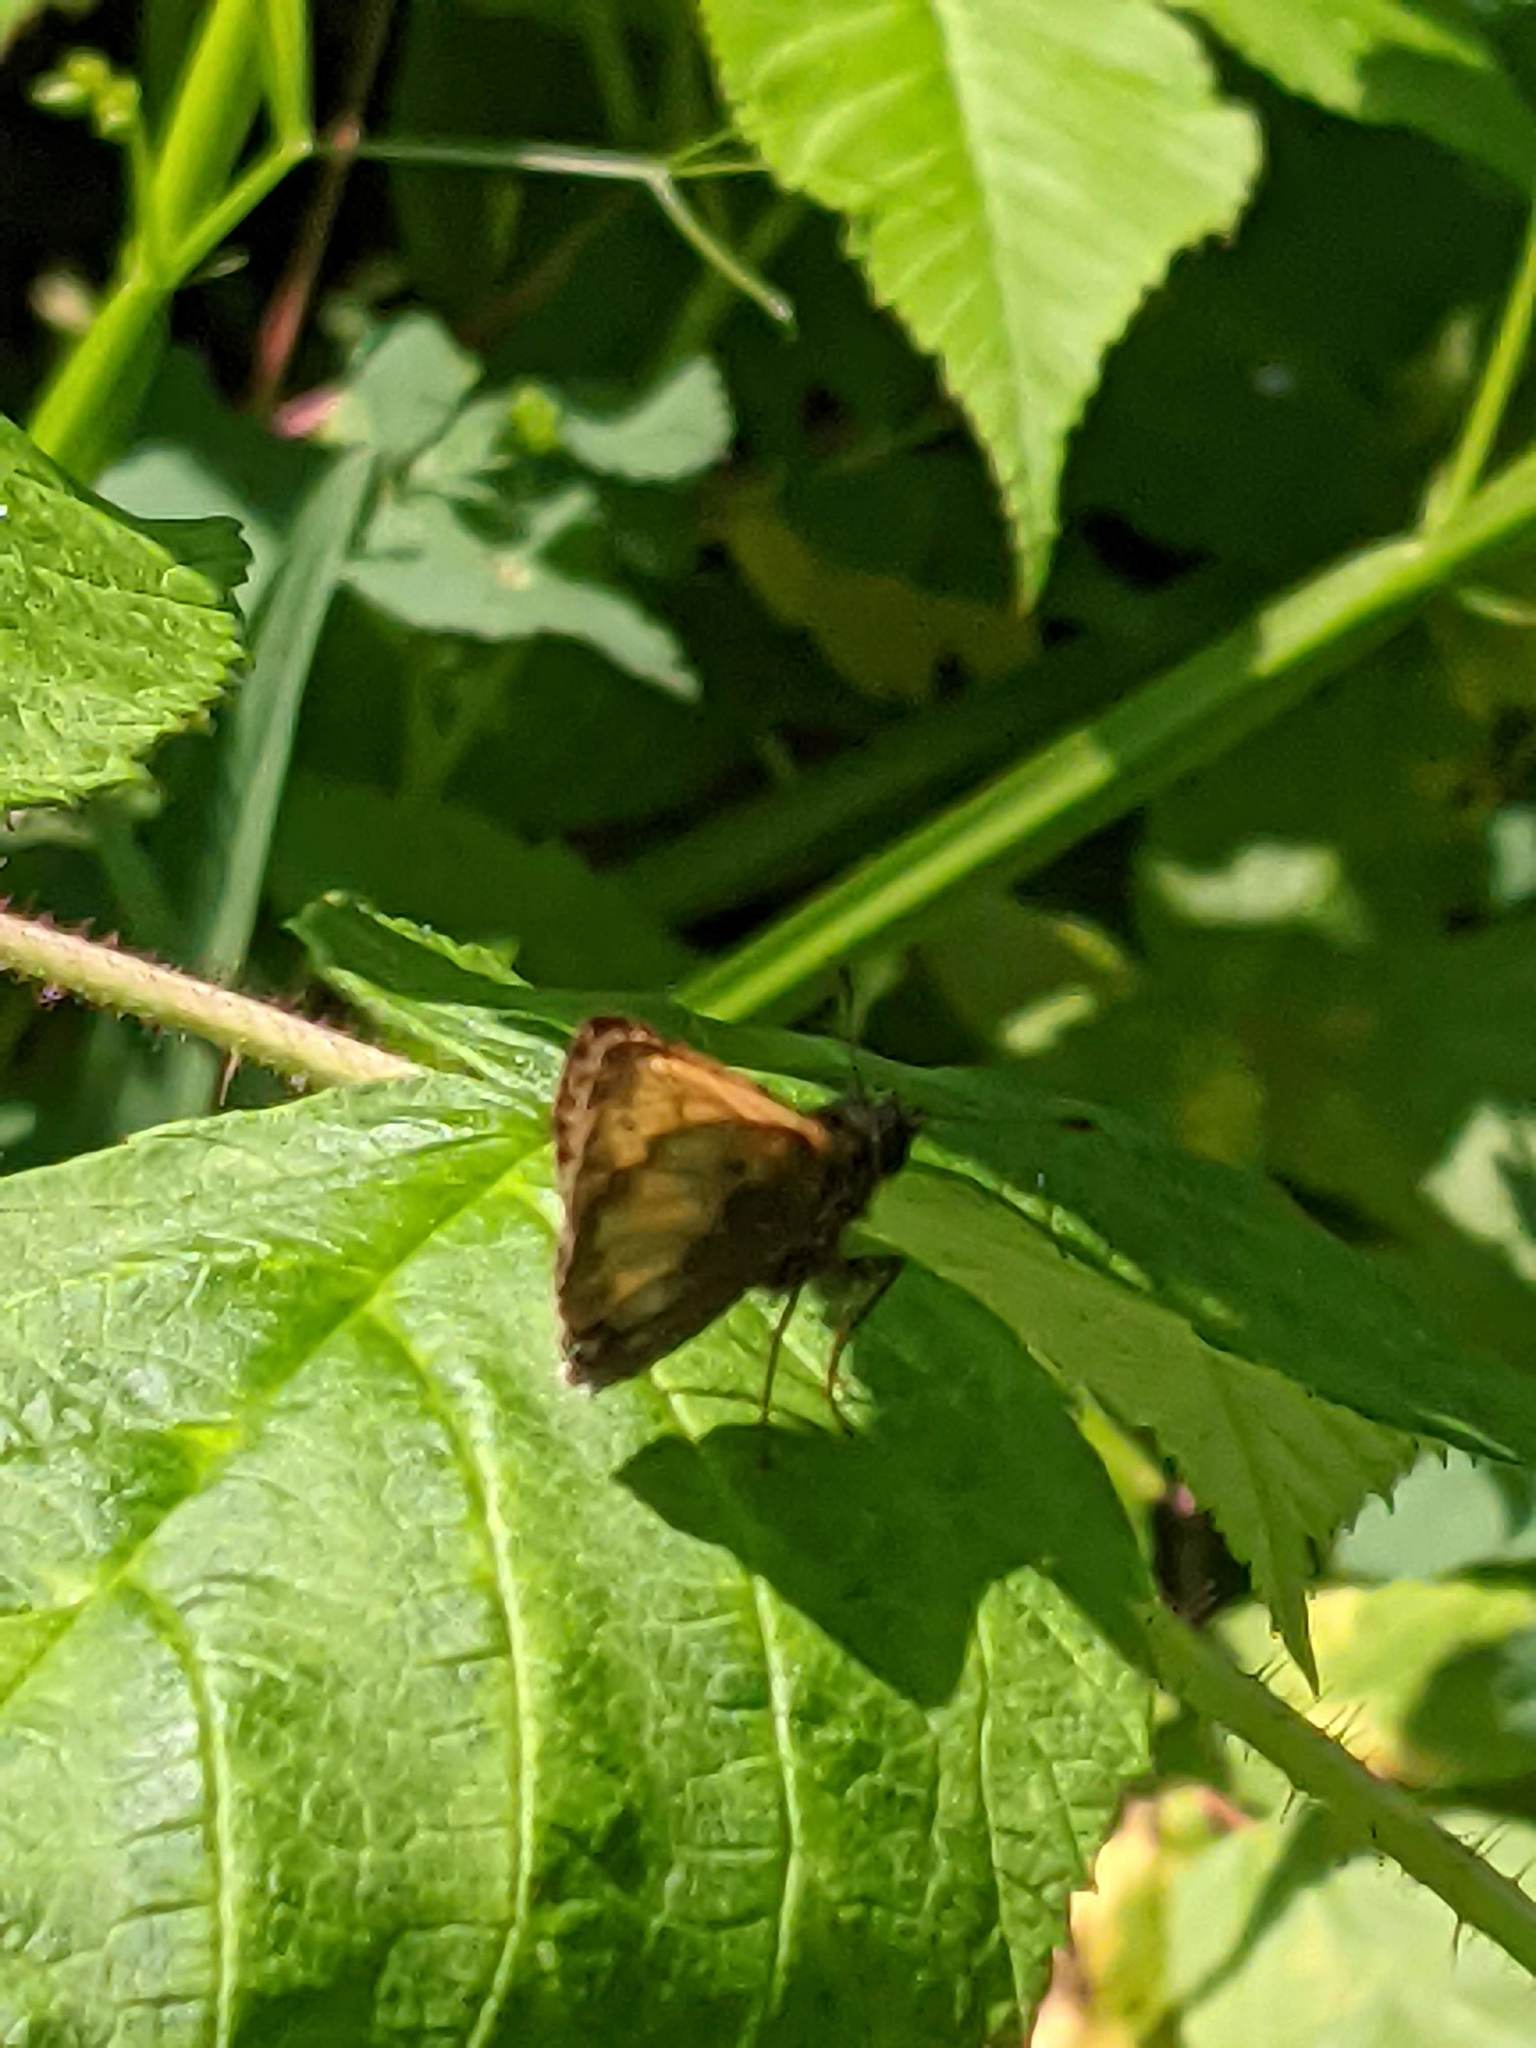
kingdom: Animalia
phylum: Arthropoda
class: Insecta
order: Lepidoptera
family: Hesperiidae
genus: Lon
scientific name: Lon hobomok
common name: Hobomok skipper
